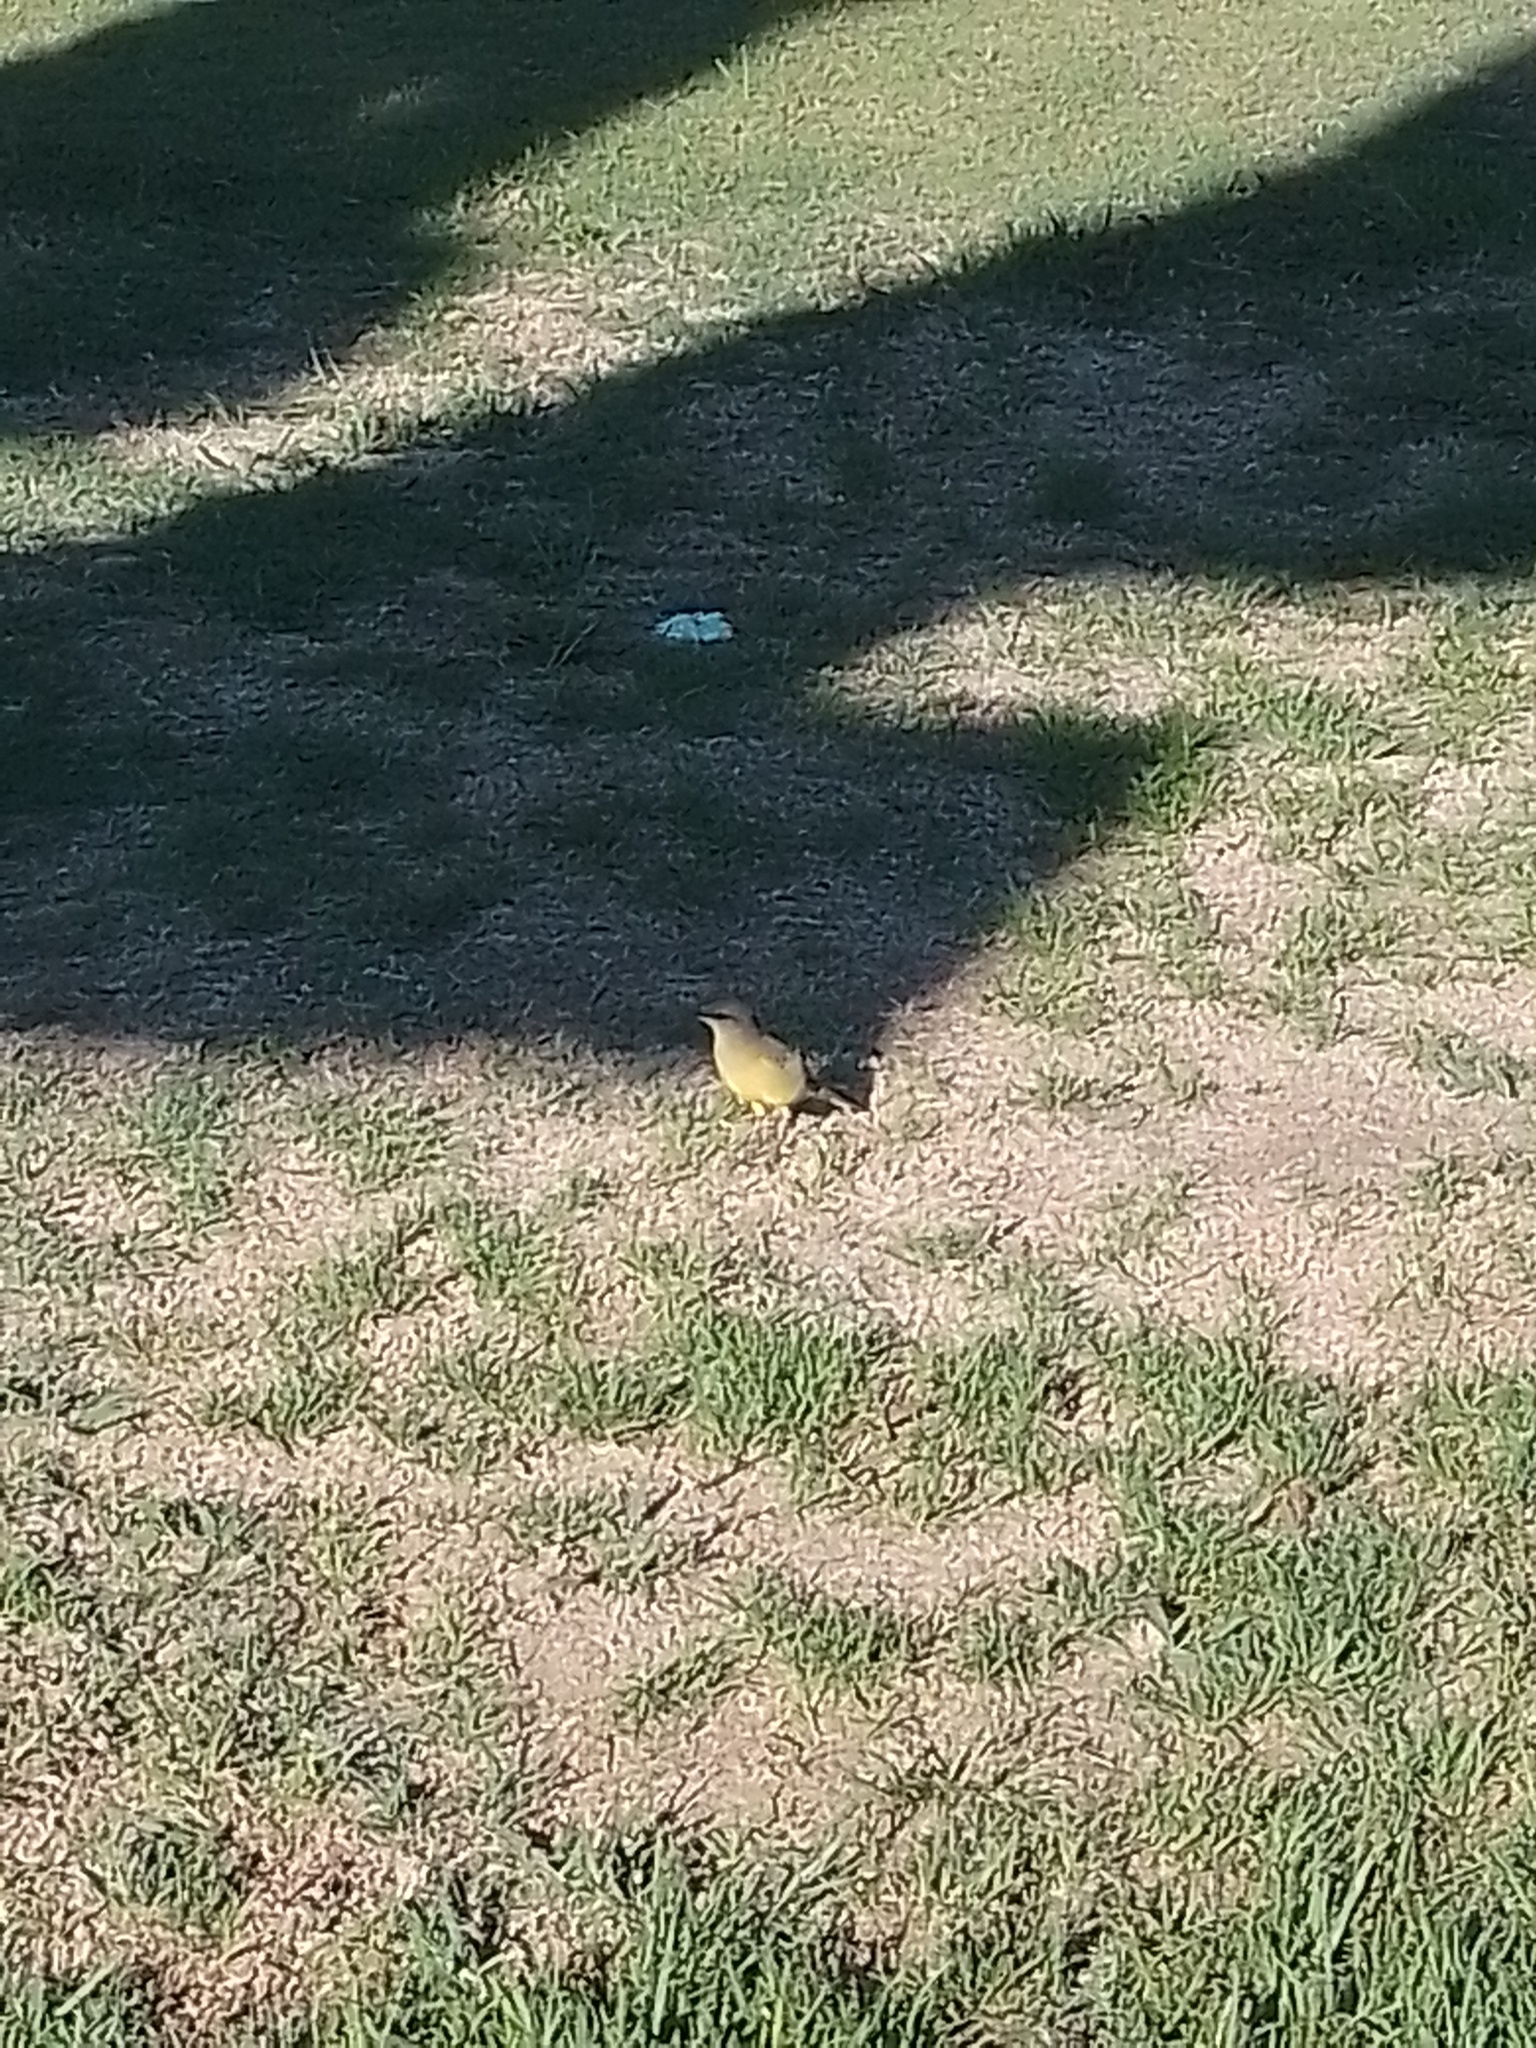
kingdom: Animalia
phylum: Chordata
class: Aves
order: Passeriformes
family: Tyrannidae
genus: Machetornis
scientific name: Machetornis rixosa
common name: Cattle tyrant
